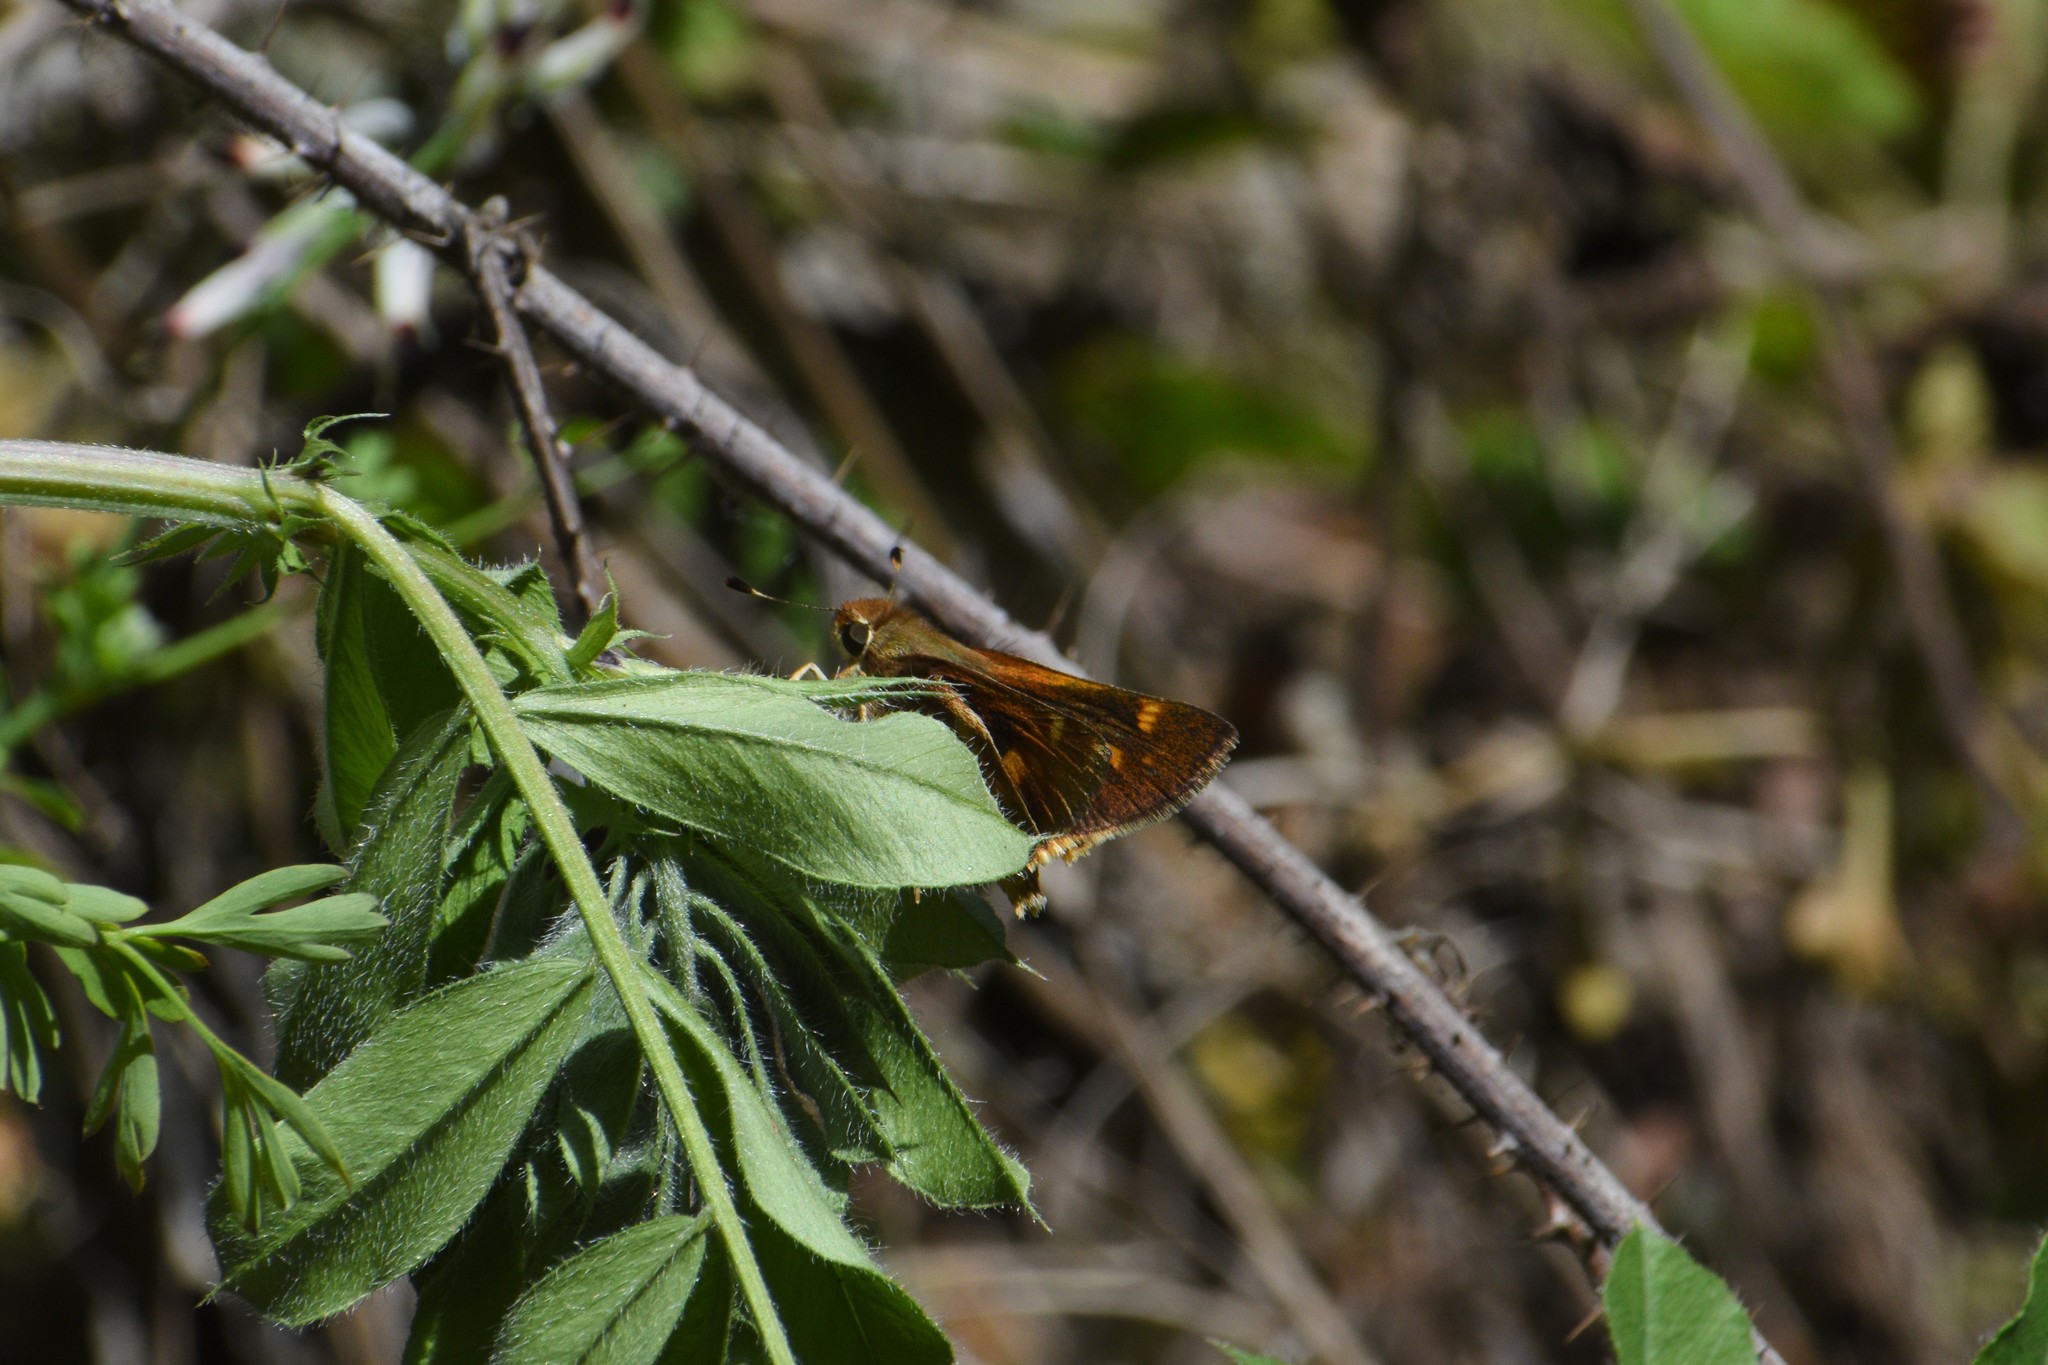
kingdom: Animalia
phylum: Arthropoda
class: Insecta
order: Lepidoptera
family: Hesperiidae
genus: Lon
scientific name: Lon melane
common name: Umber skipper
